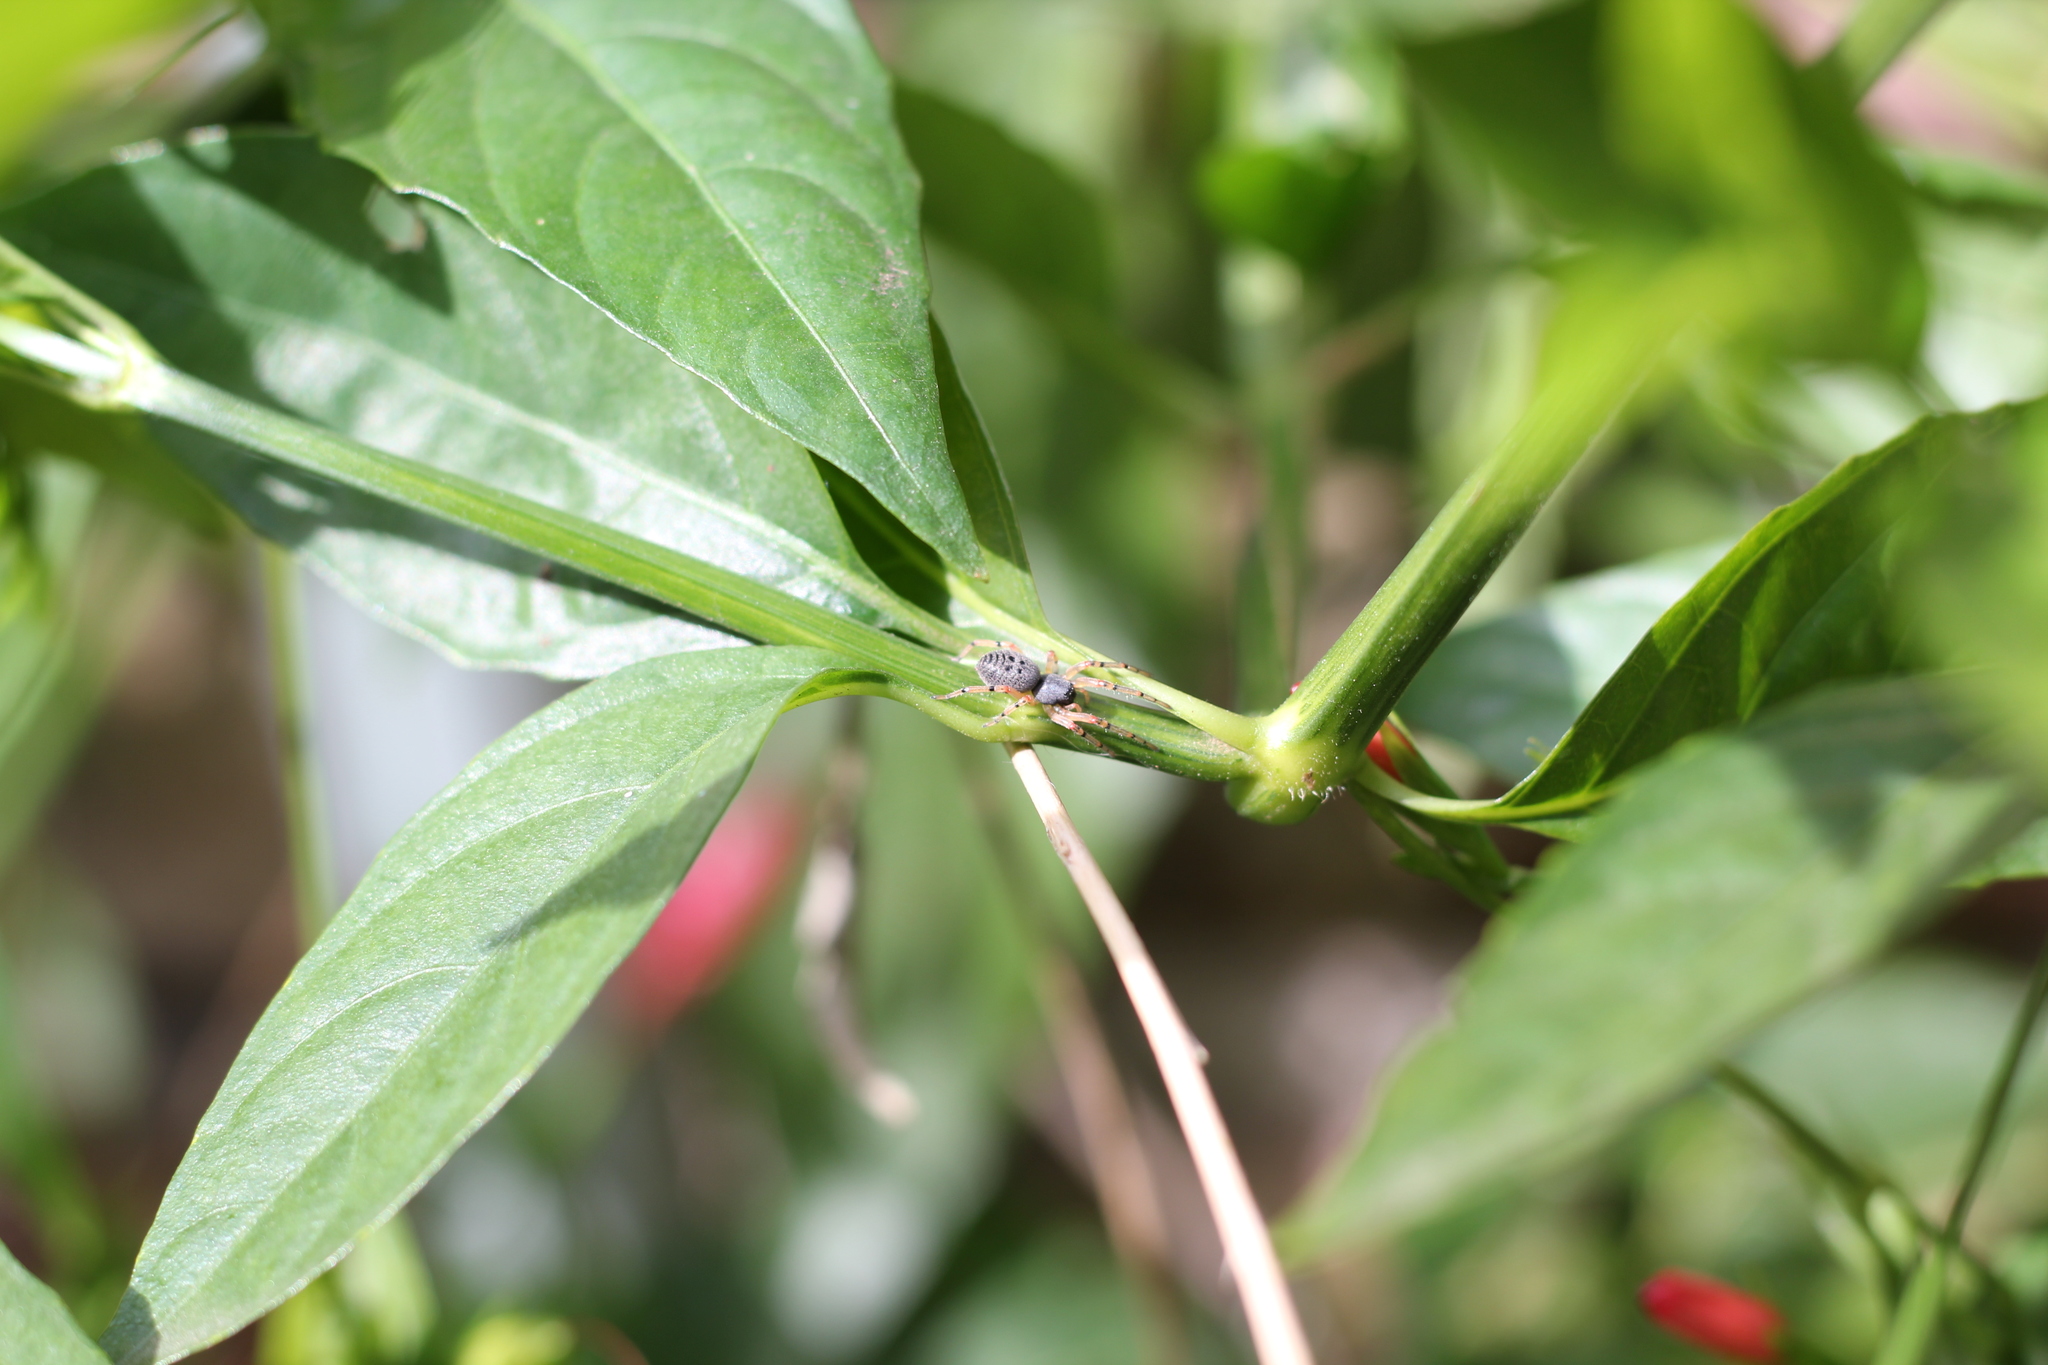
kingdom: Animalia
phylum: Arthropoda
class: Arachnida
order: Araneae
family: Trachelidae
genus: Trachelopachys
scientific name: Trachelopachys
